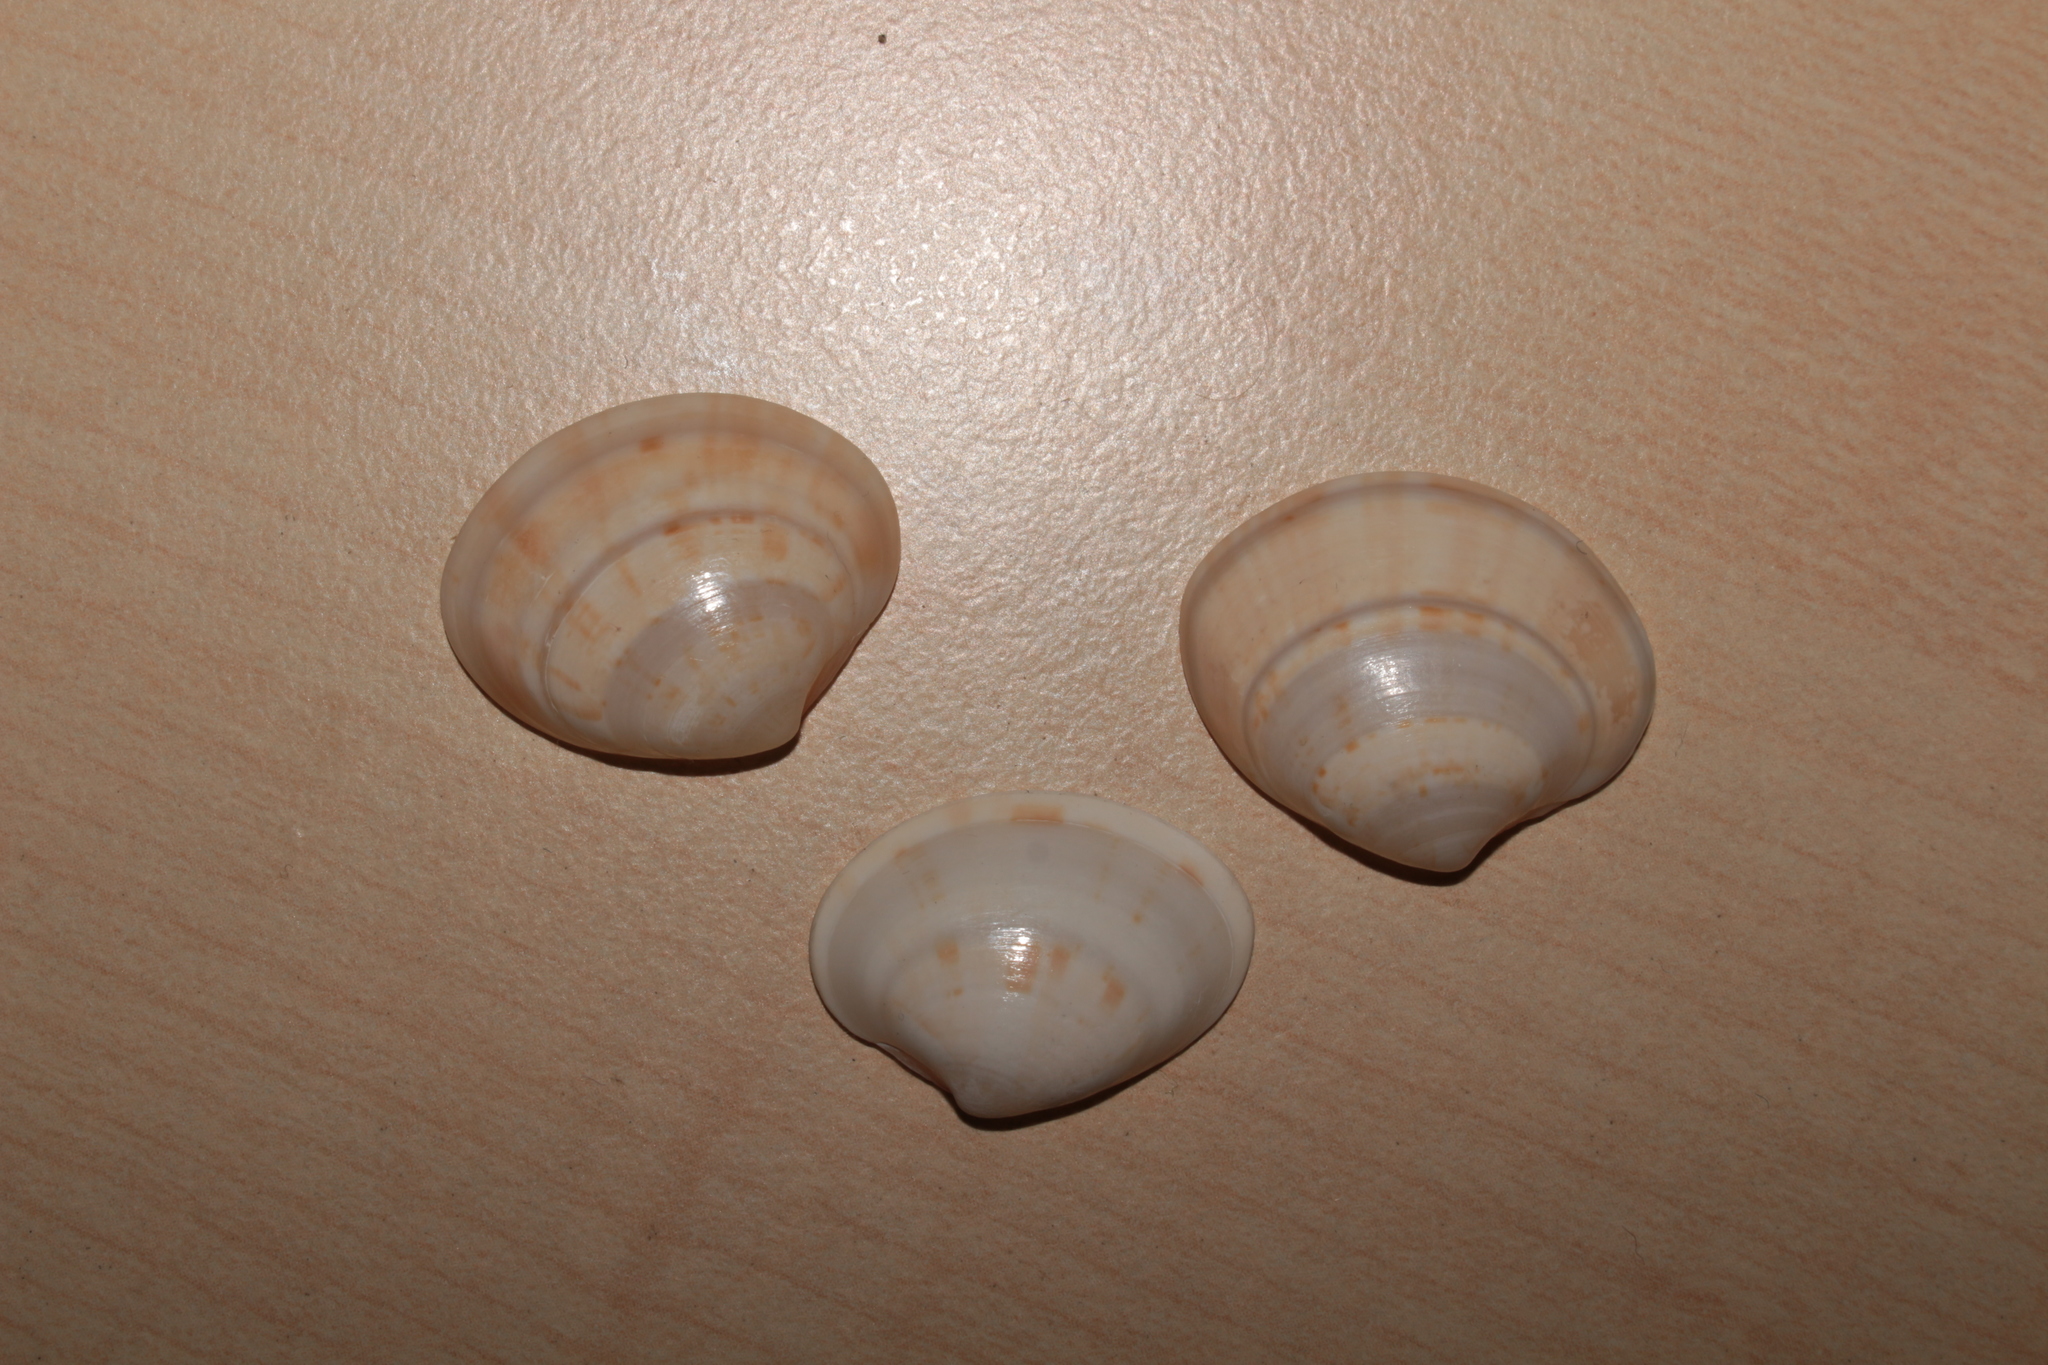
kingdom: Animalia
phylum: Mollusca
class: Bivalvia
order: Venerida
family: Veneridae
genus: Callista
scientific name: Callista chione
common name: Brown venus
